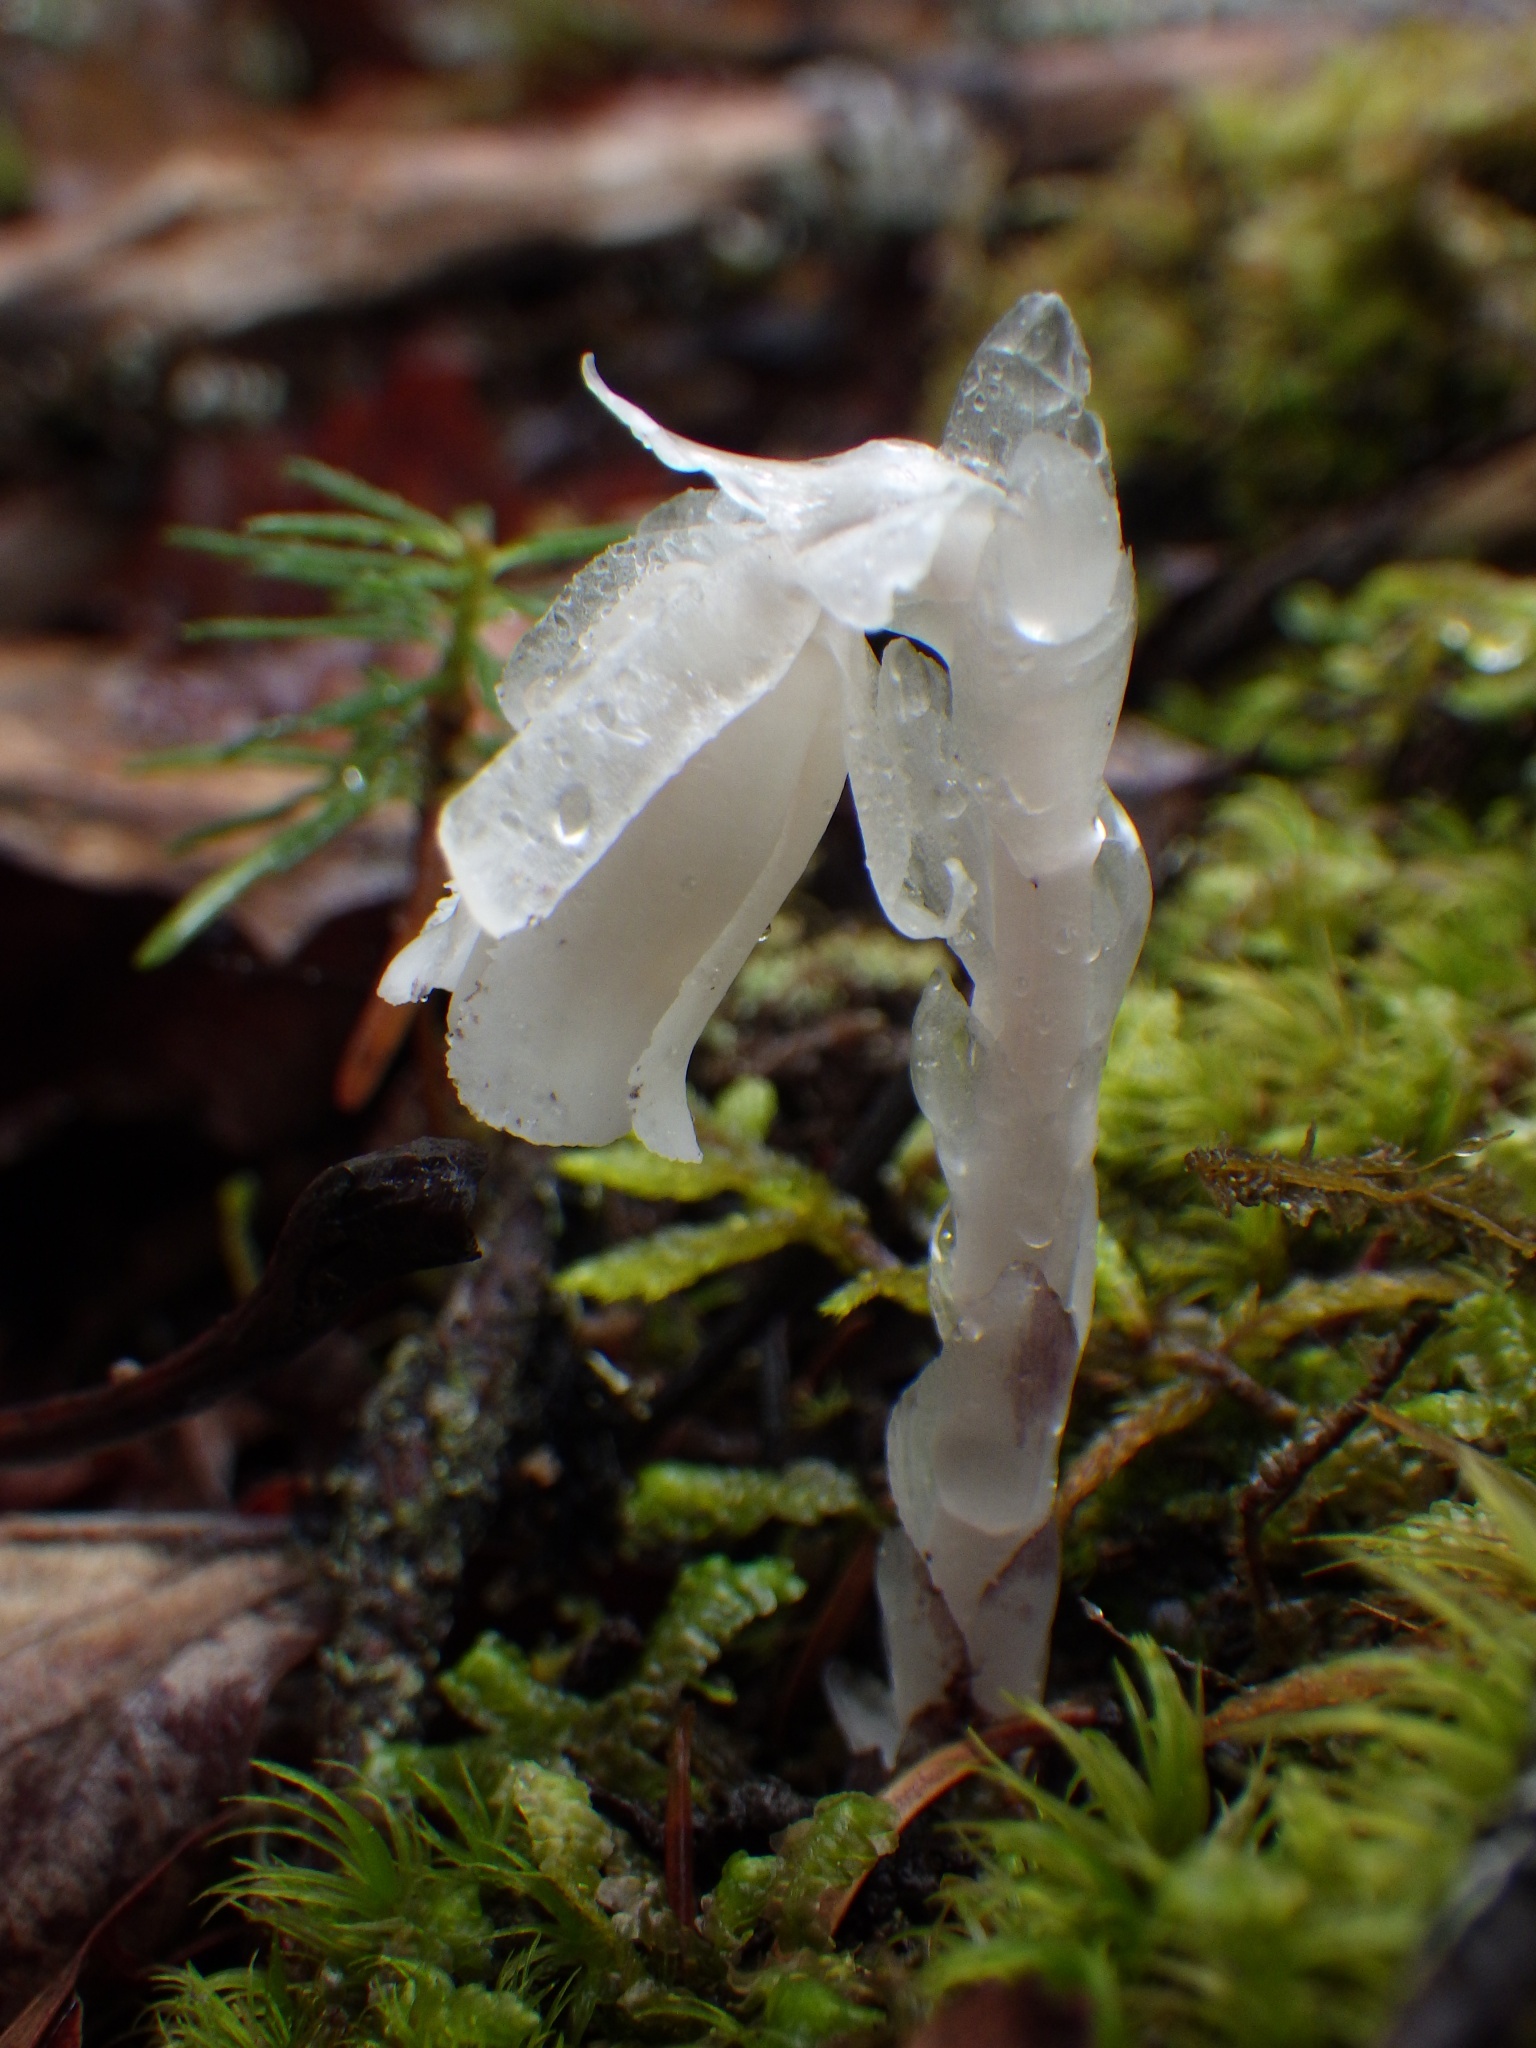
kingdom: Plantae
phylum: Tracheophyta
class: Magnoliopsida
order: Ericales
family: Ericaceae
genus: Monotropa
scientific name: Monotropa uniflora
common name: Convulsion root
